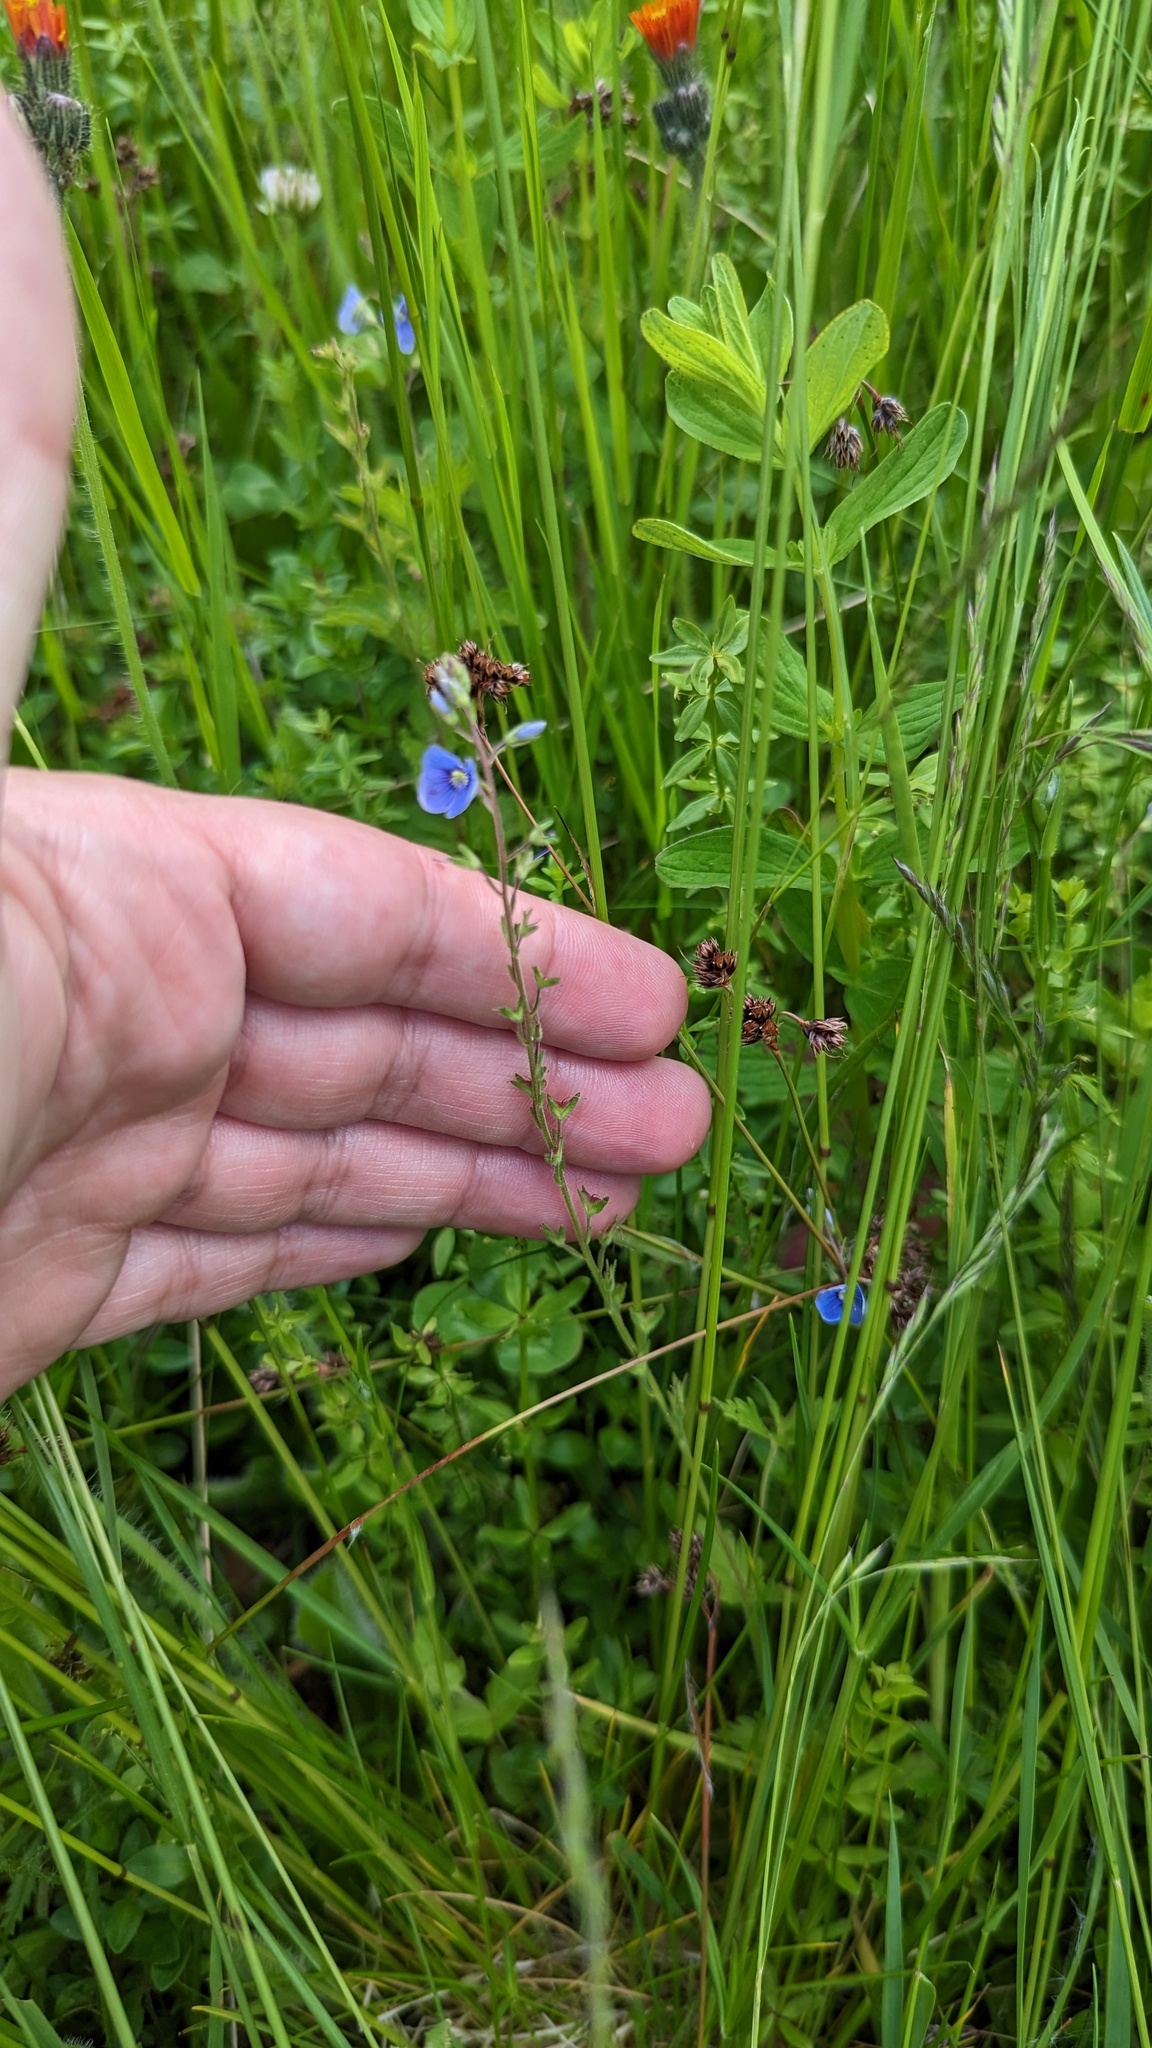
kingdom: Plantae
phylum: Tracheophyta
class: Magnoliopsida
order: Lamiales
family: Plantaginaceae
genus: Veronica
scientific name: Veronica chamaedrys
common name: Germander speedwell
